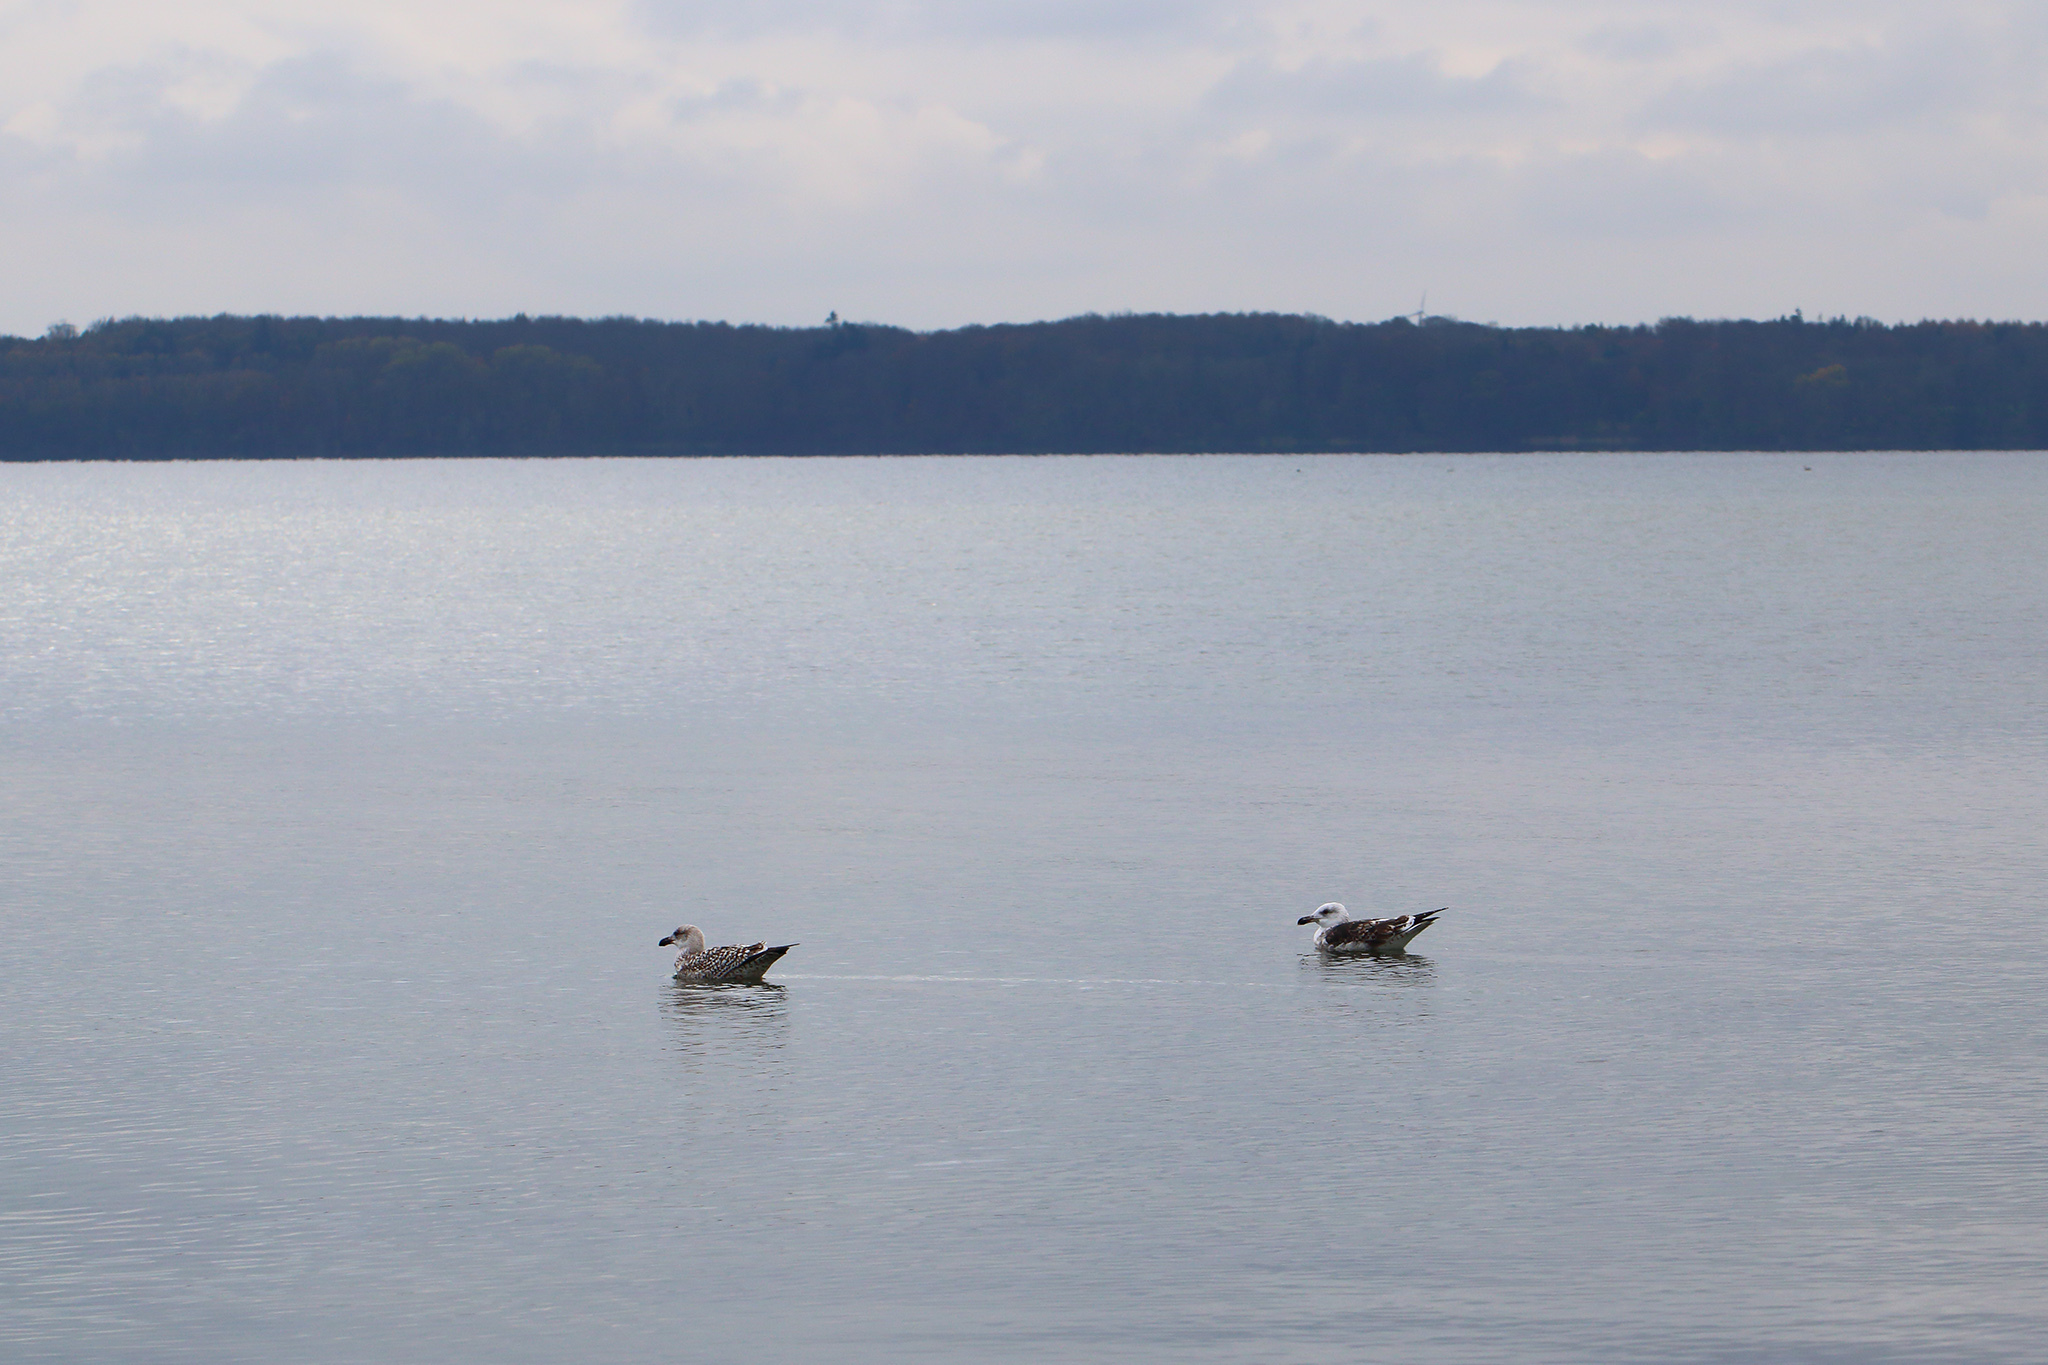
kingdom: Animalia
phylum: Chordata
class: Aves
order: Charadriiformes
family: Laridae
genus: Larus
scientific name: Larus marinus
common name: Great black-backed gull
